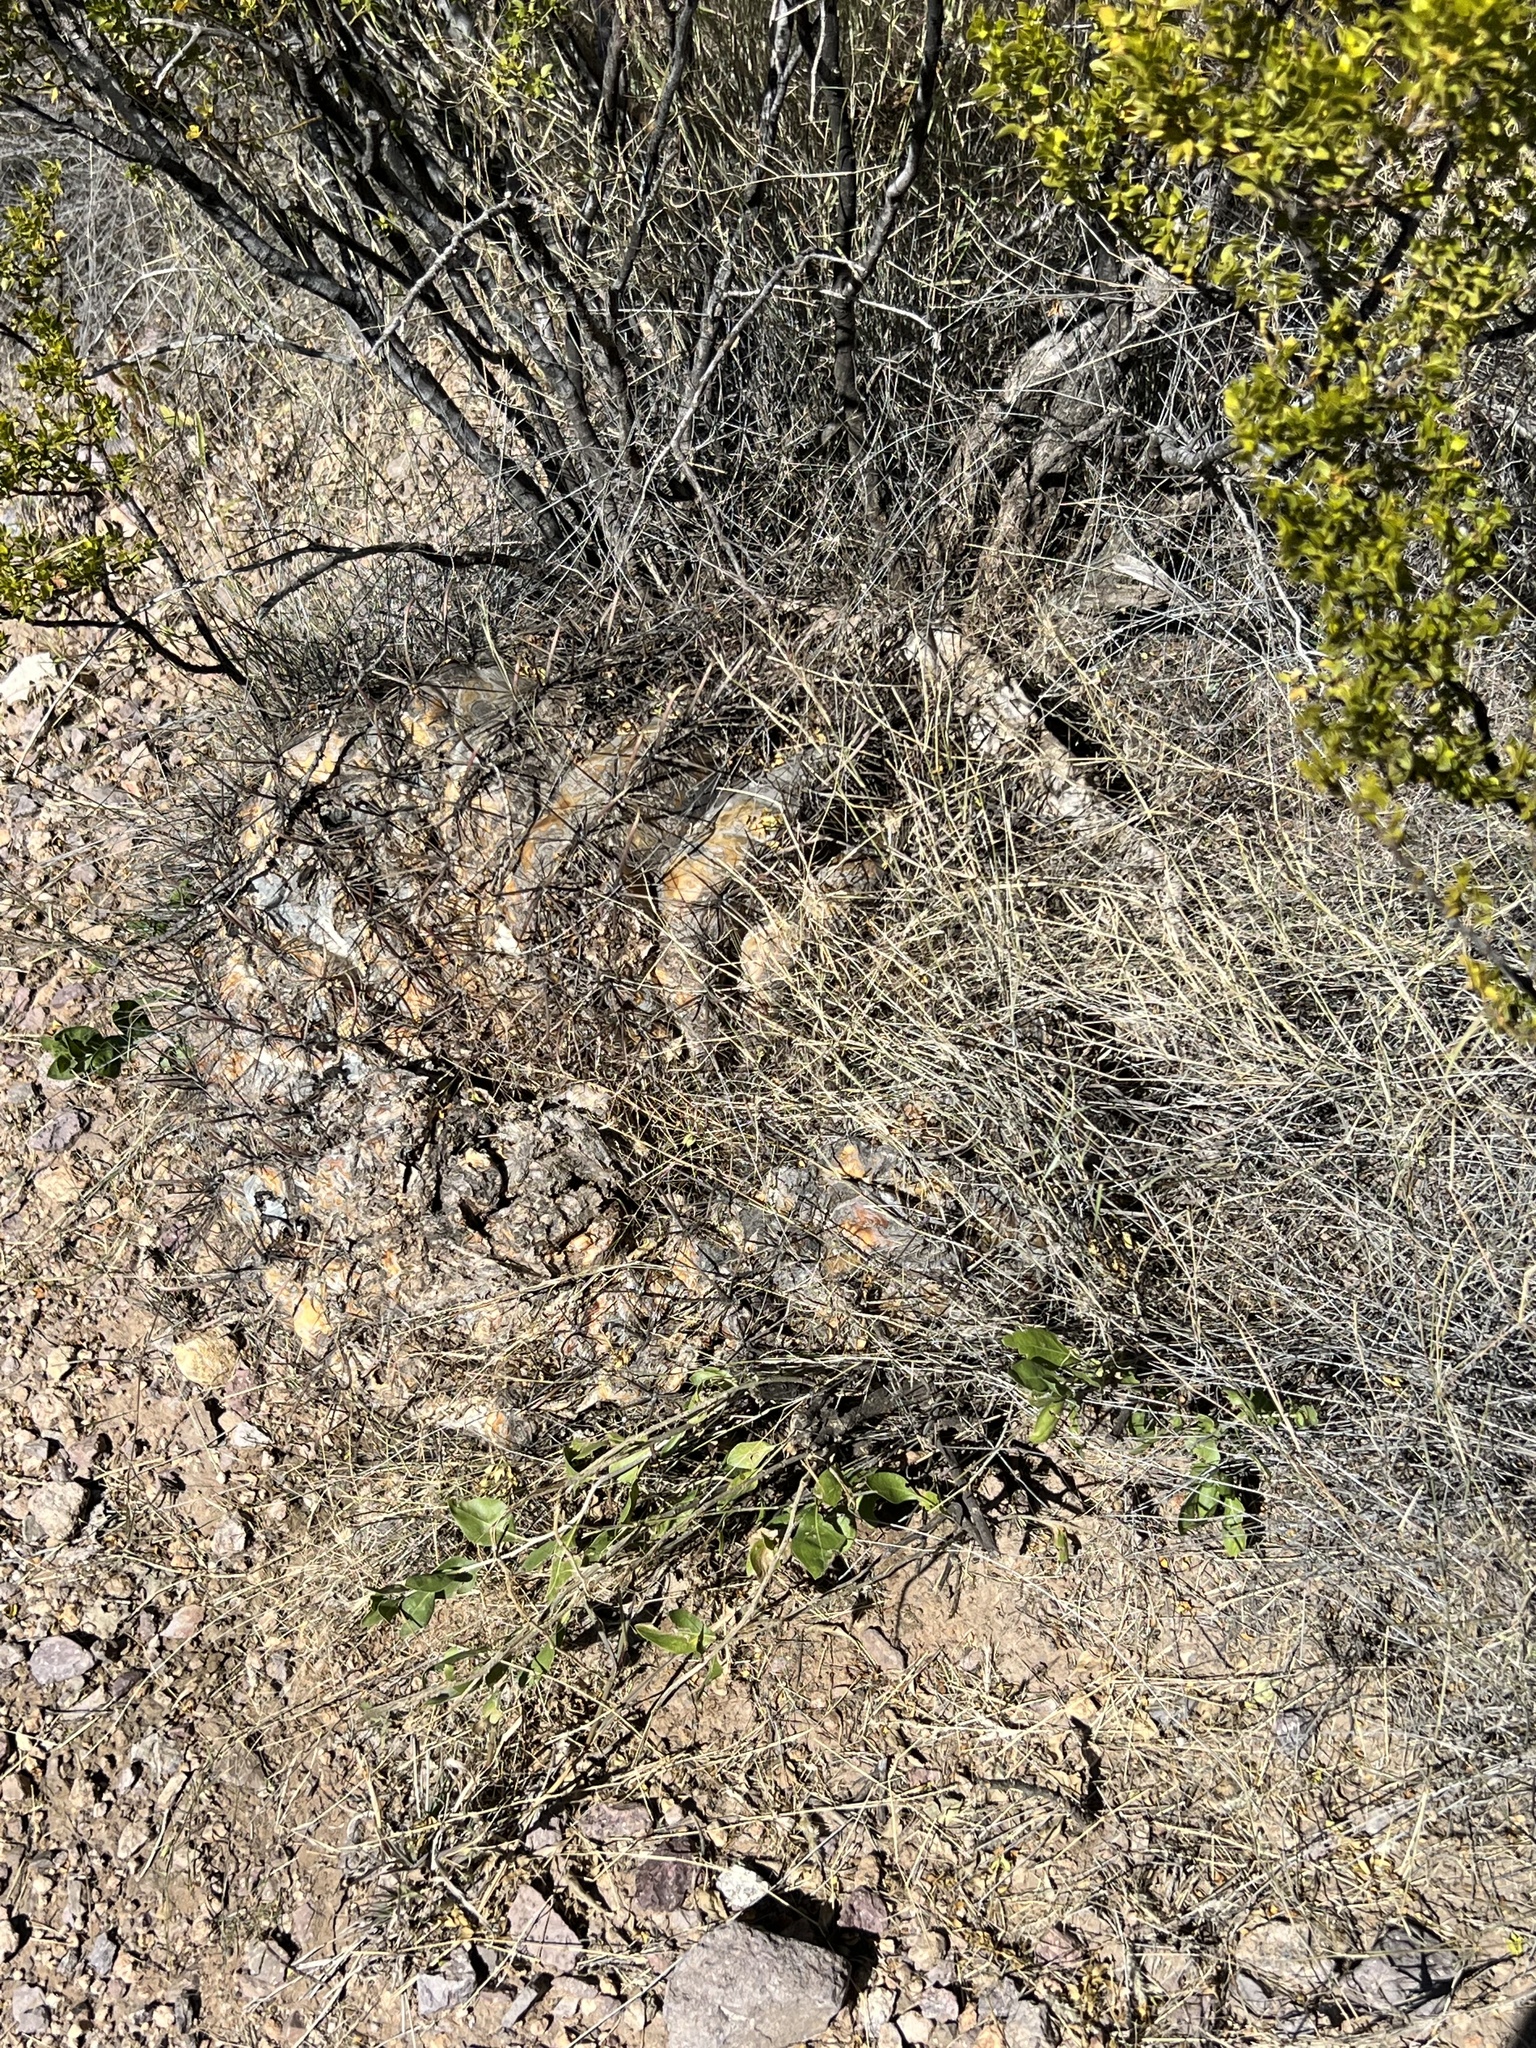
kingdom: Plantae
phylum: Tracheophyta
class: Magnoliopsida
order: Caryophyllales
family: Cactaceae
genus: Ferocactus
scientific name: Ferocactus wislizeni
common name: Candy barrel cactus
